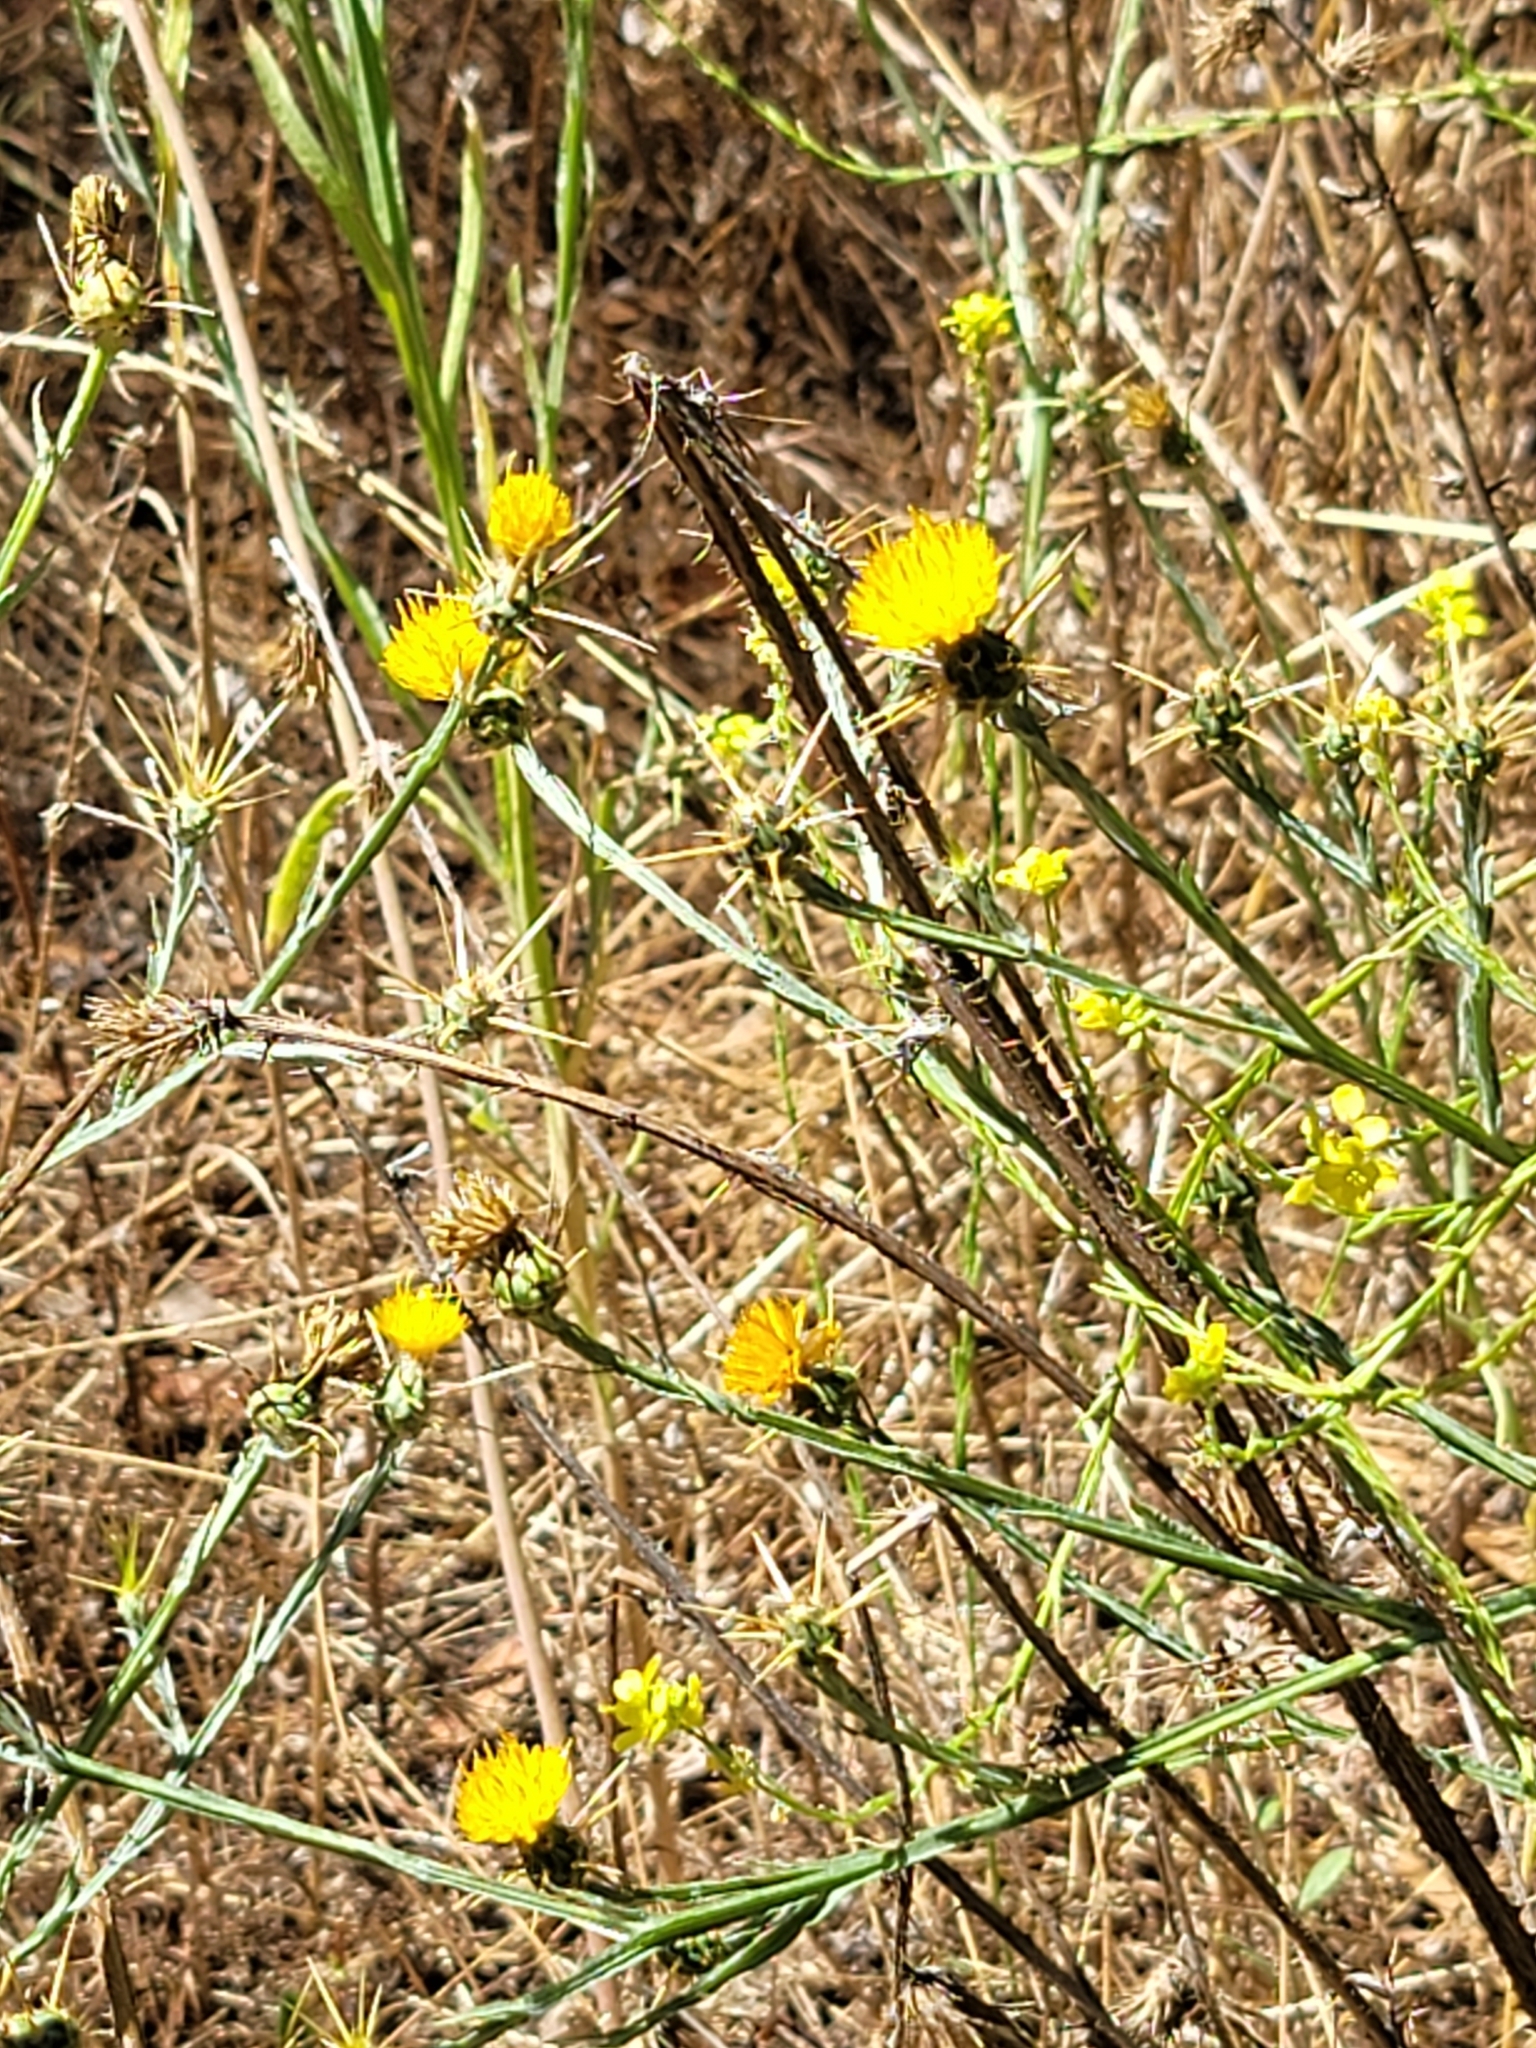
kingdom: Plantae
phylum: Tracheophyta
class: Magnoliopsida
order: Asterales
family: Asteraceae
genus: Centaurea
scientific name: Centaurea solstitialis
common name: Yellow star-thistle
